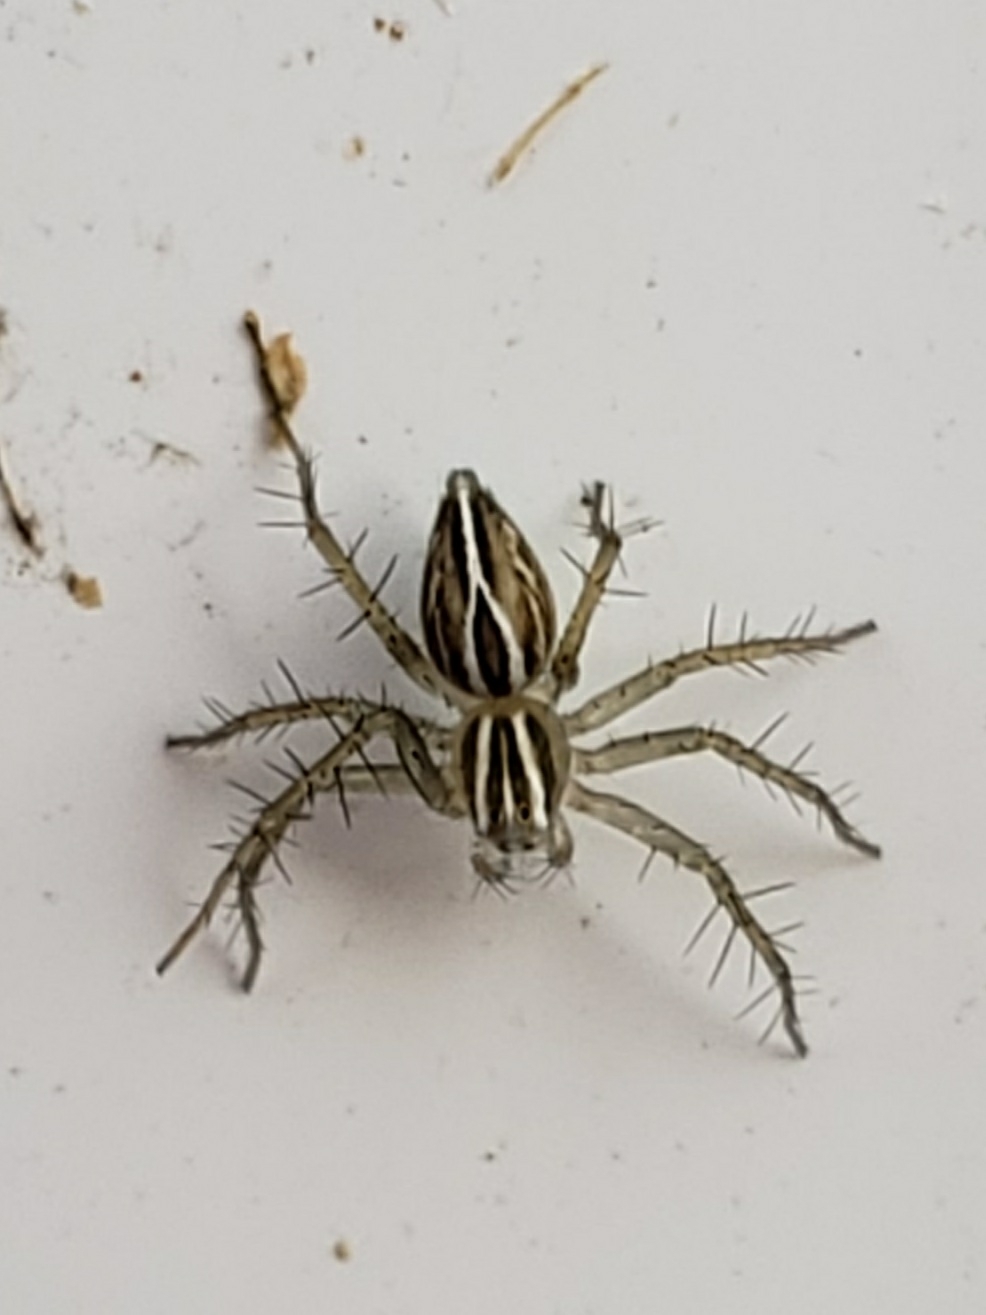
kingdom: Animalia
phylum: Arthropoda
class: Arachnida
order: Araneae
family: Oxyopidae
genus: Oxyopes
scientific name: Oxyopes salticus
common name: Lynx spiders
